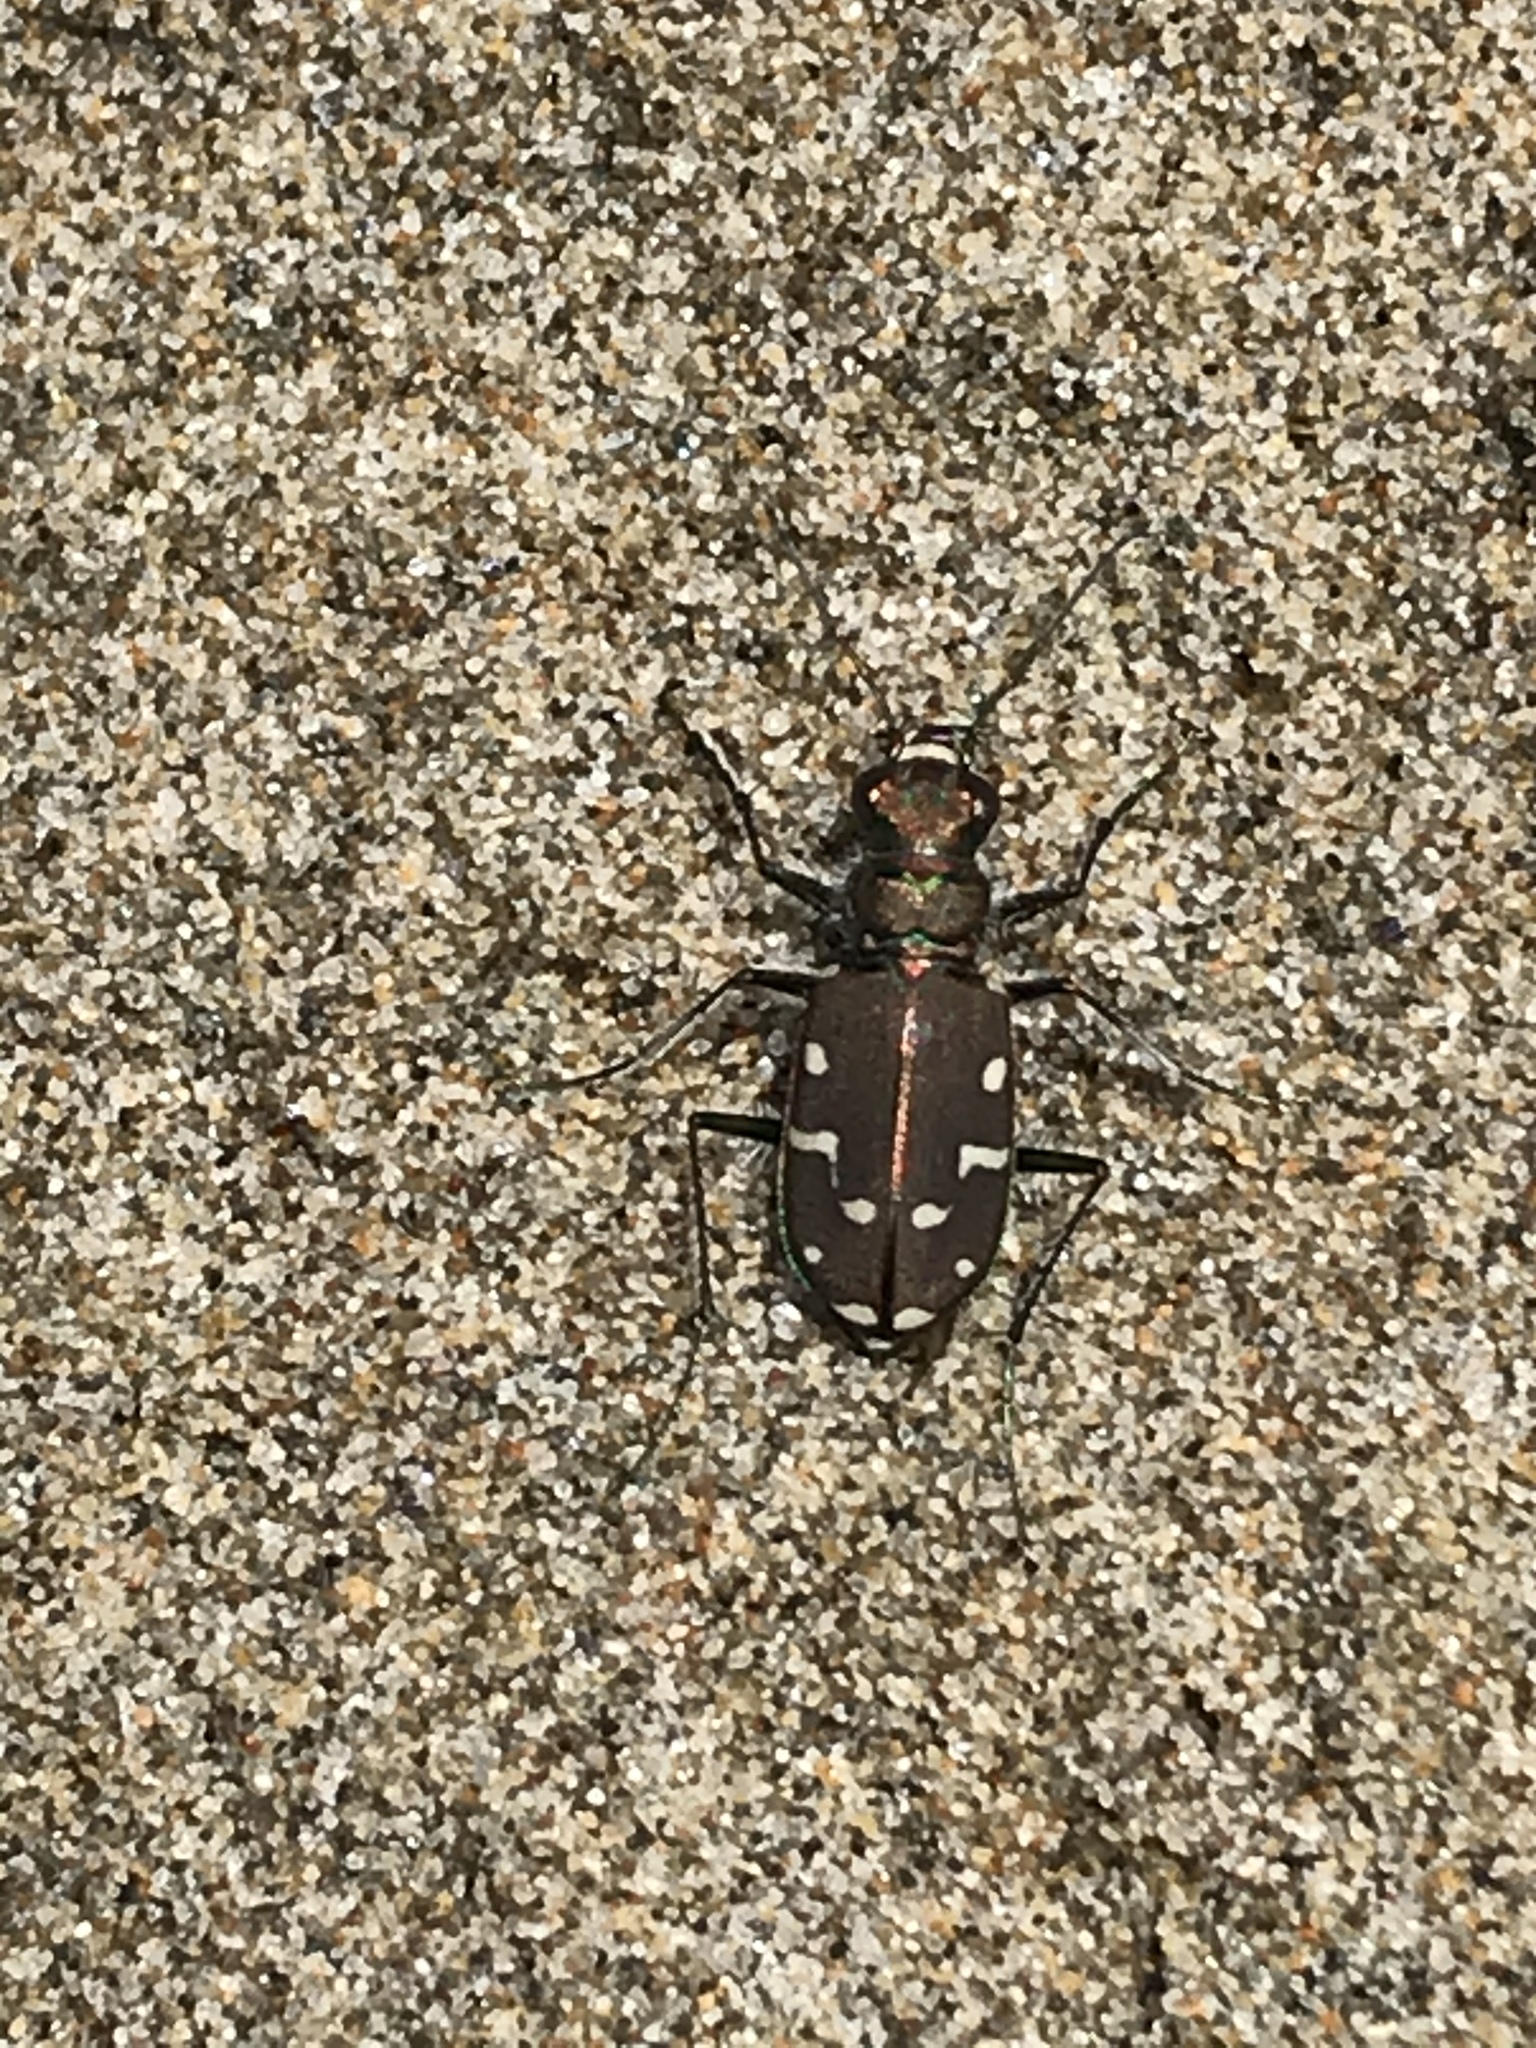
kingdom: Animalia
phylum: Arthropoda
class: Insecta
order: Coleoptera
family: Carabidae
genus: Cicindela
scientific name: Cicindela oregona
